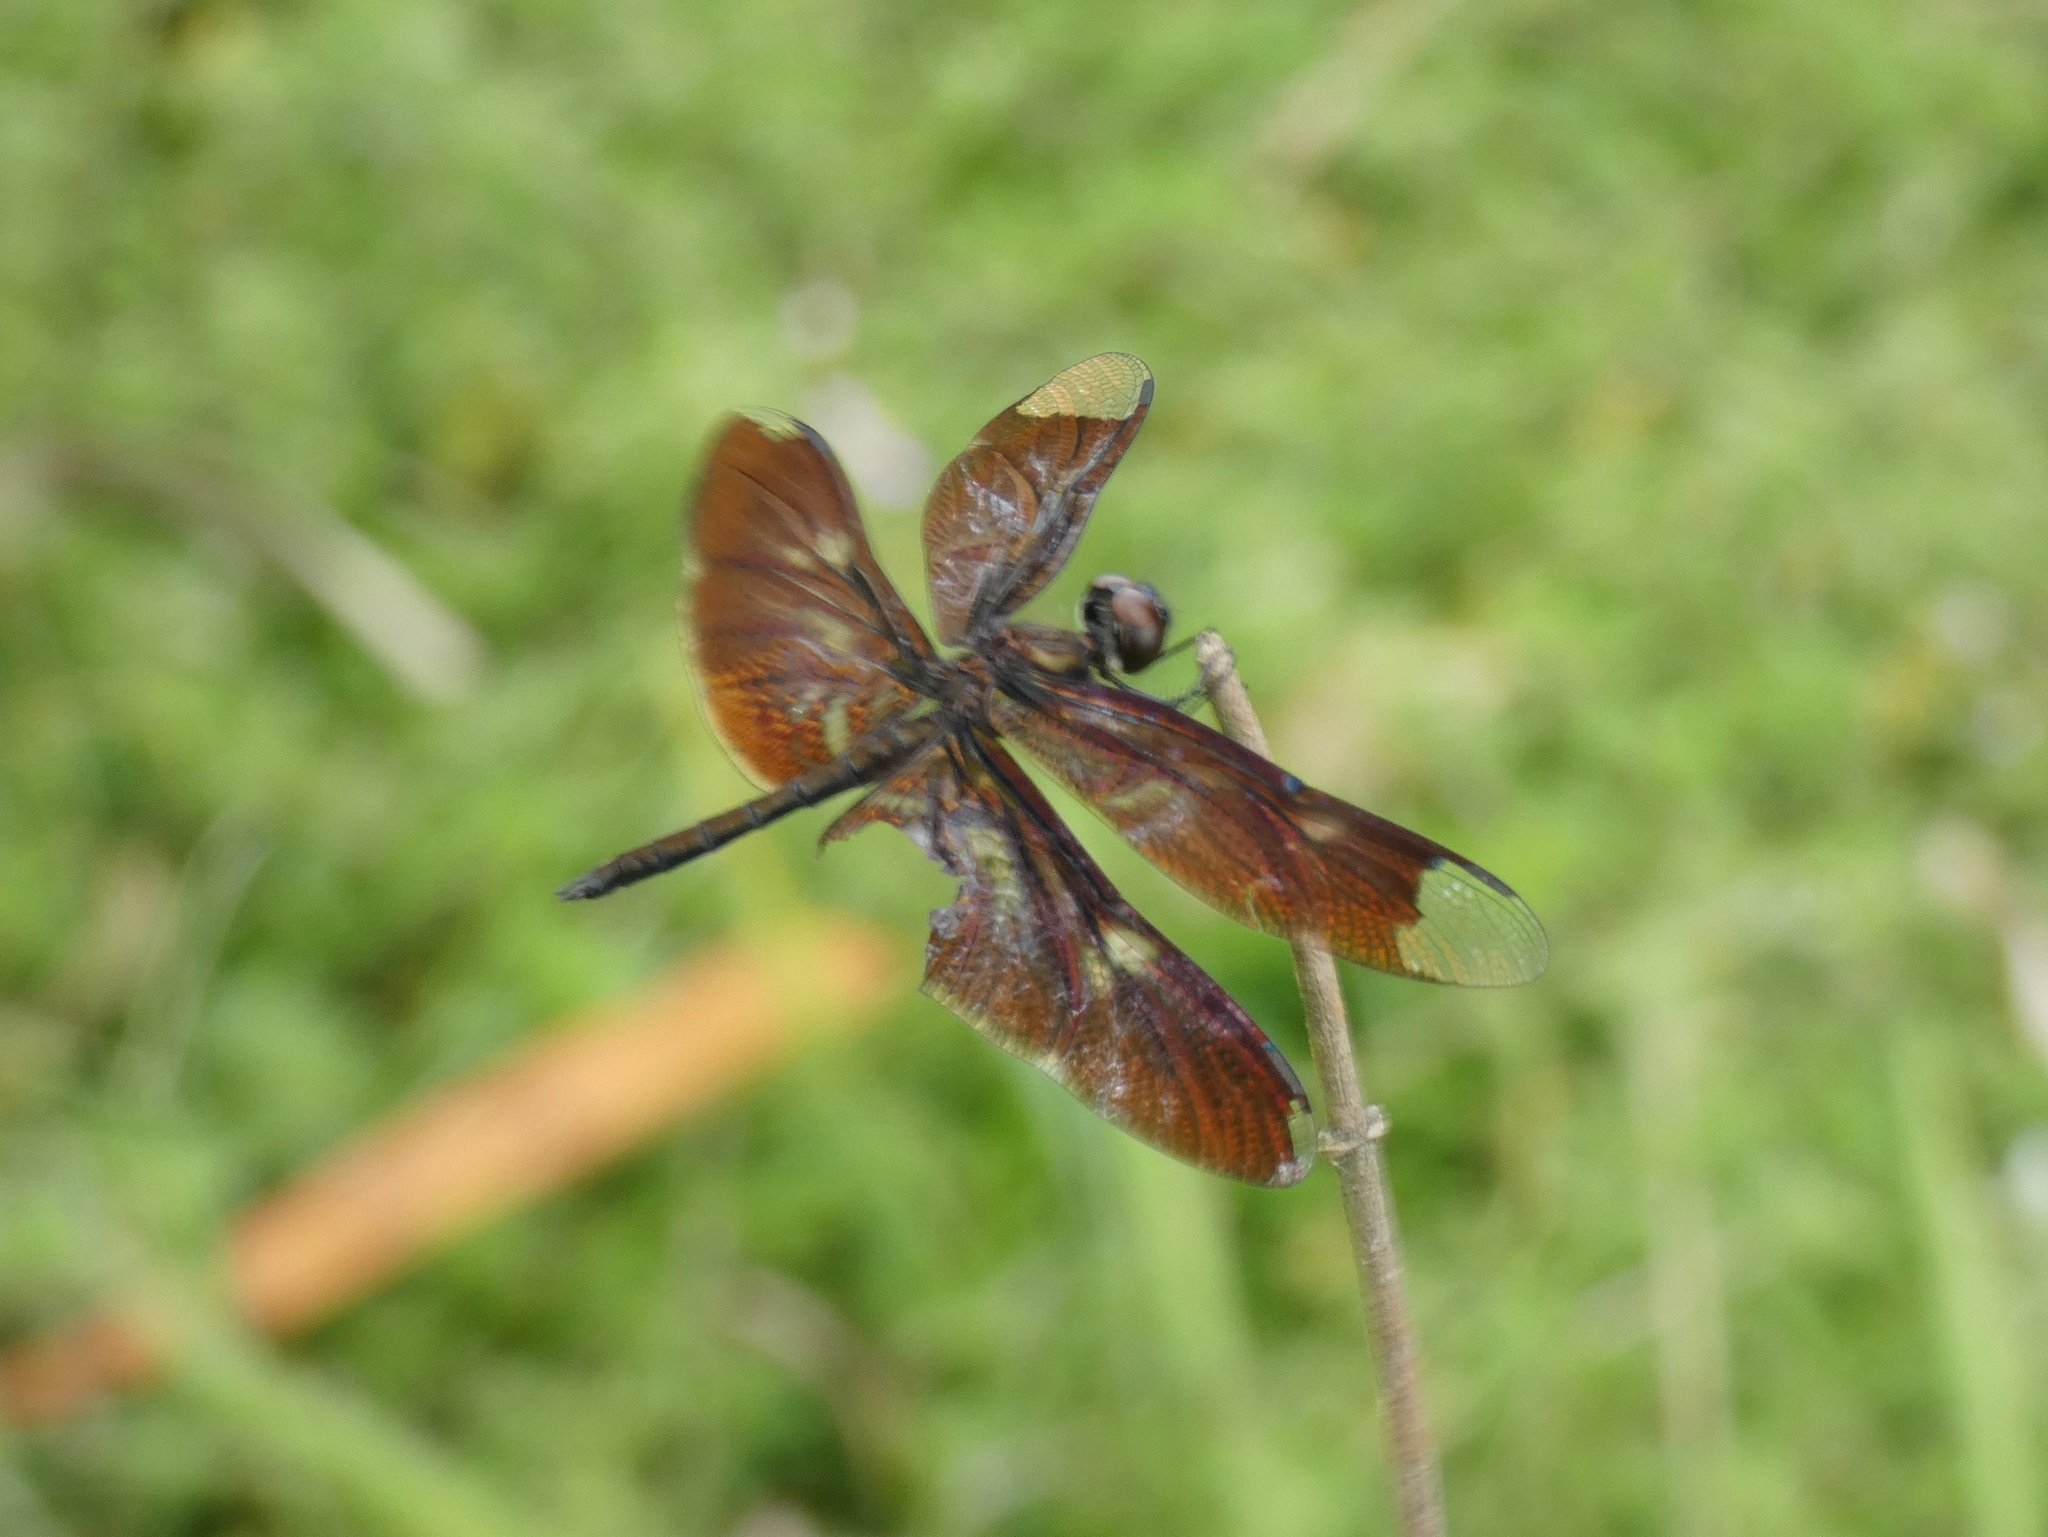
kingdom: Animalia
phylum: Arthropoda
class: Insecta
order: Odonata
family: Libellulidae
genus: Rhyothemis
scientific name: Rhyothemis notata
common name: Veiled flutterer
